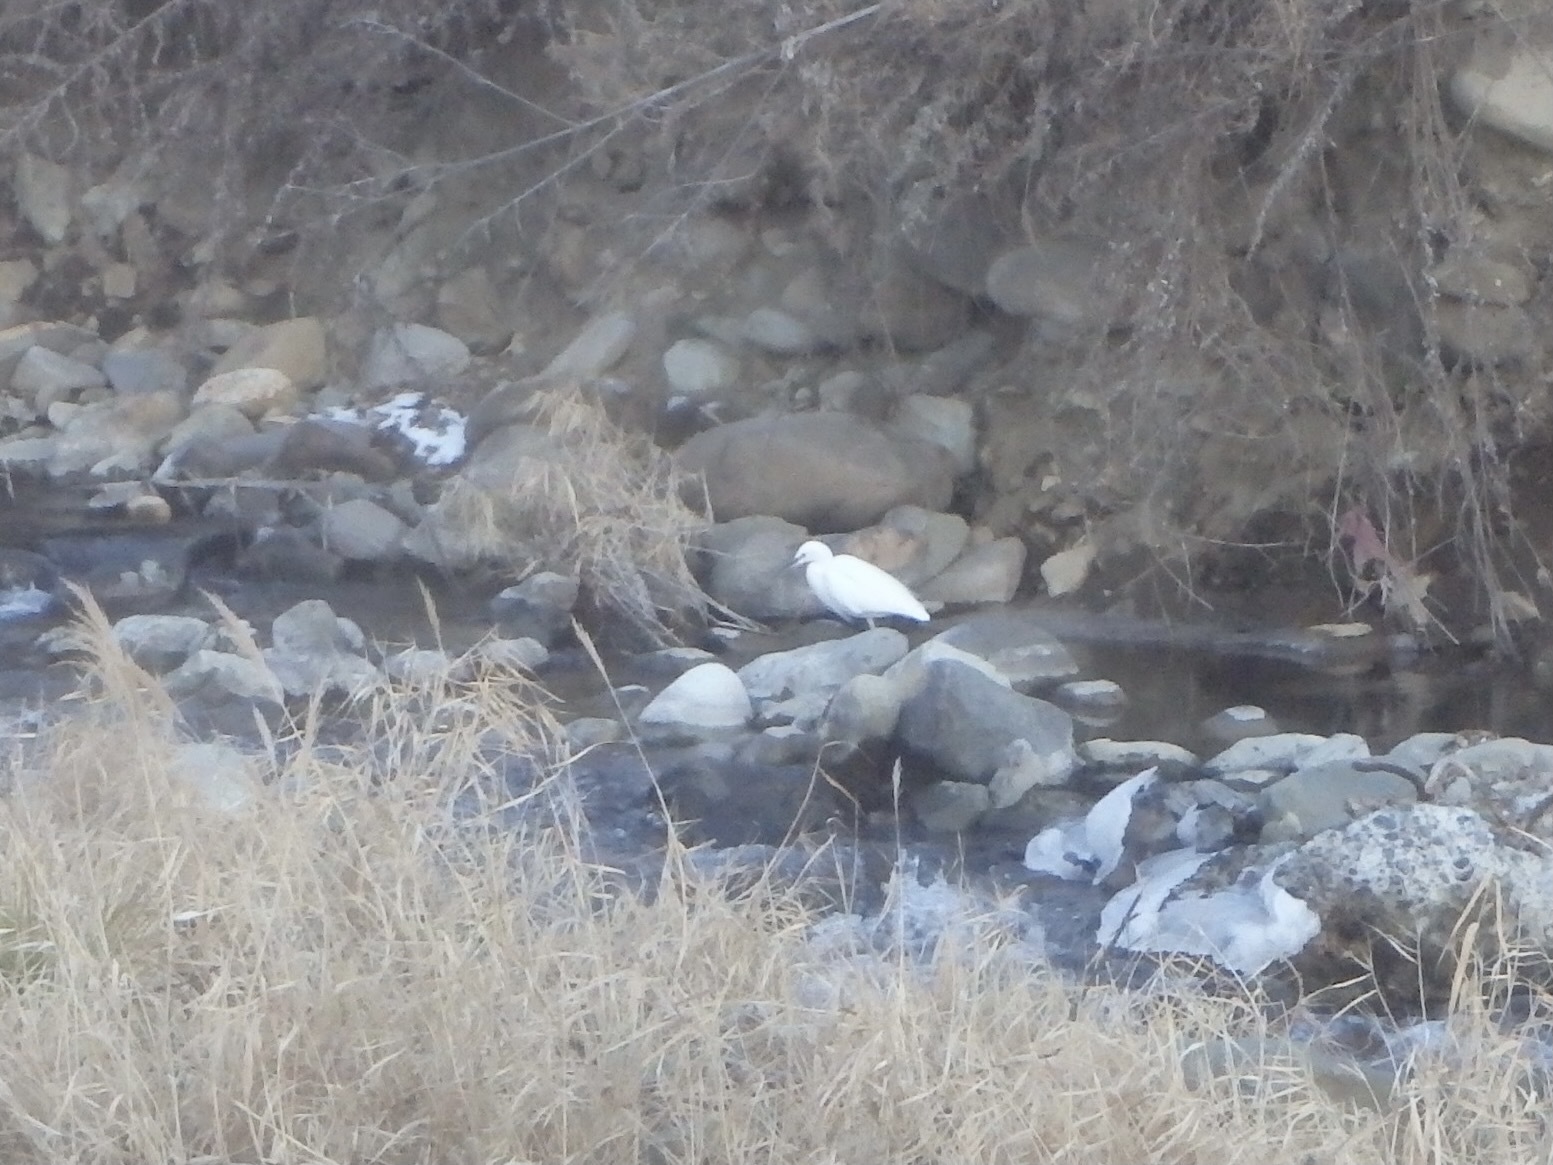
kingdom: Animalia
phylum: Chordata
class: Aves
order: Pelecaniformes
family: Ardeidae
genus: Egretta
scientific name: Egretta garzetta
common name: Little egret
